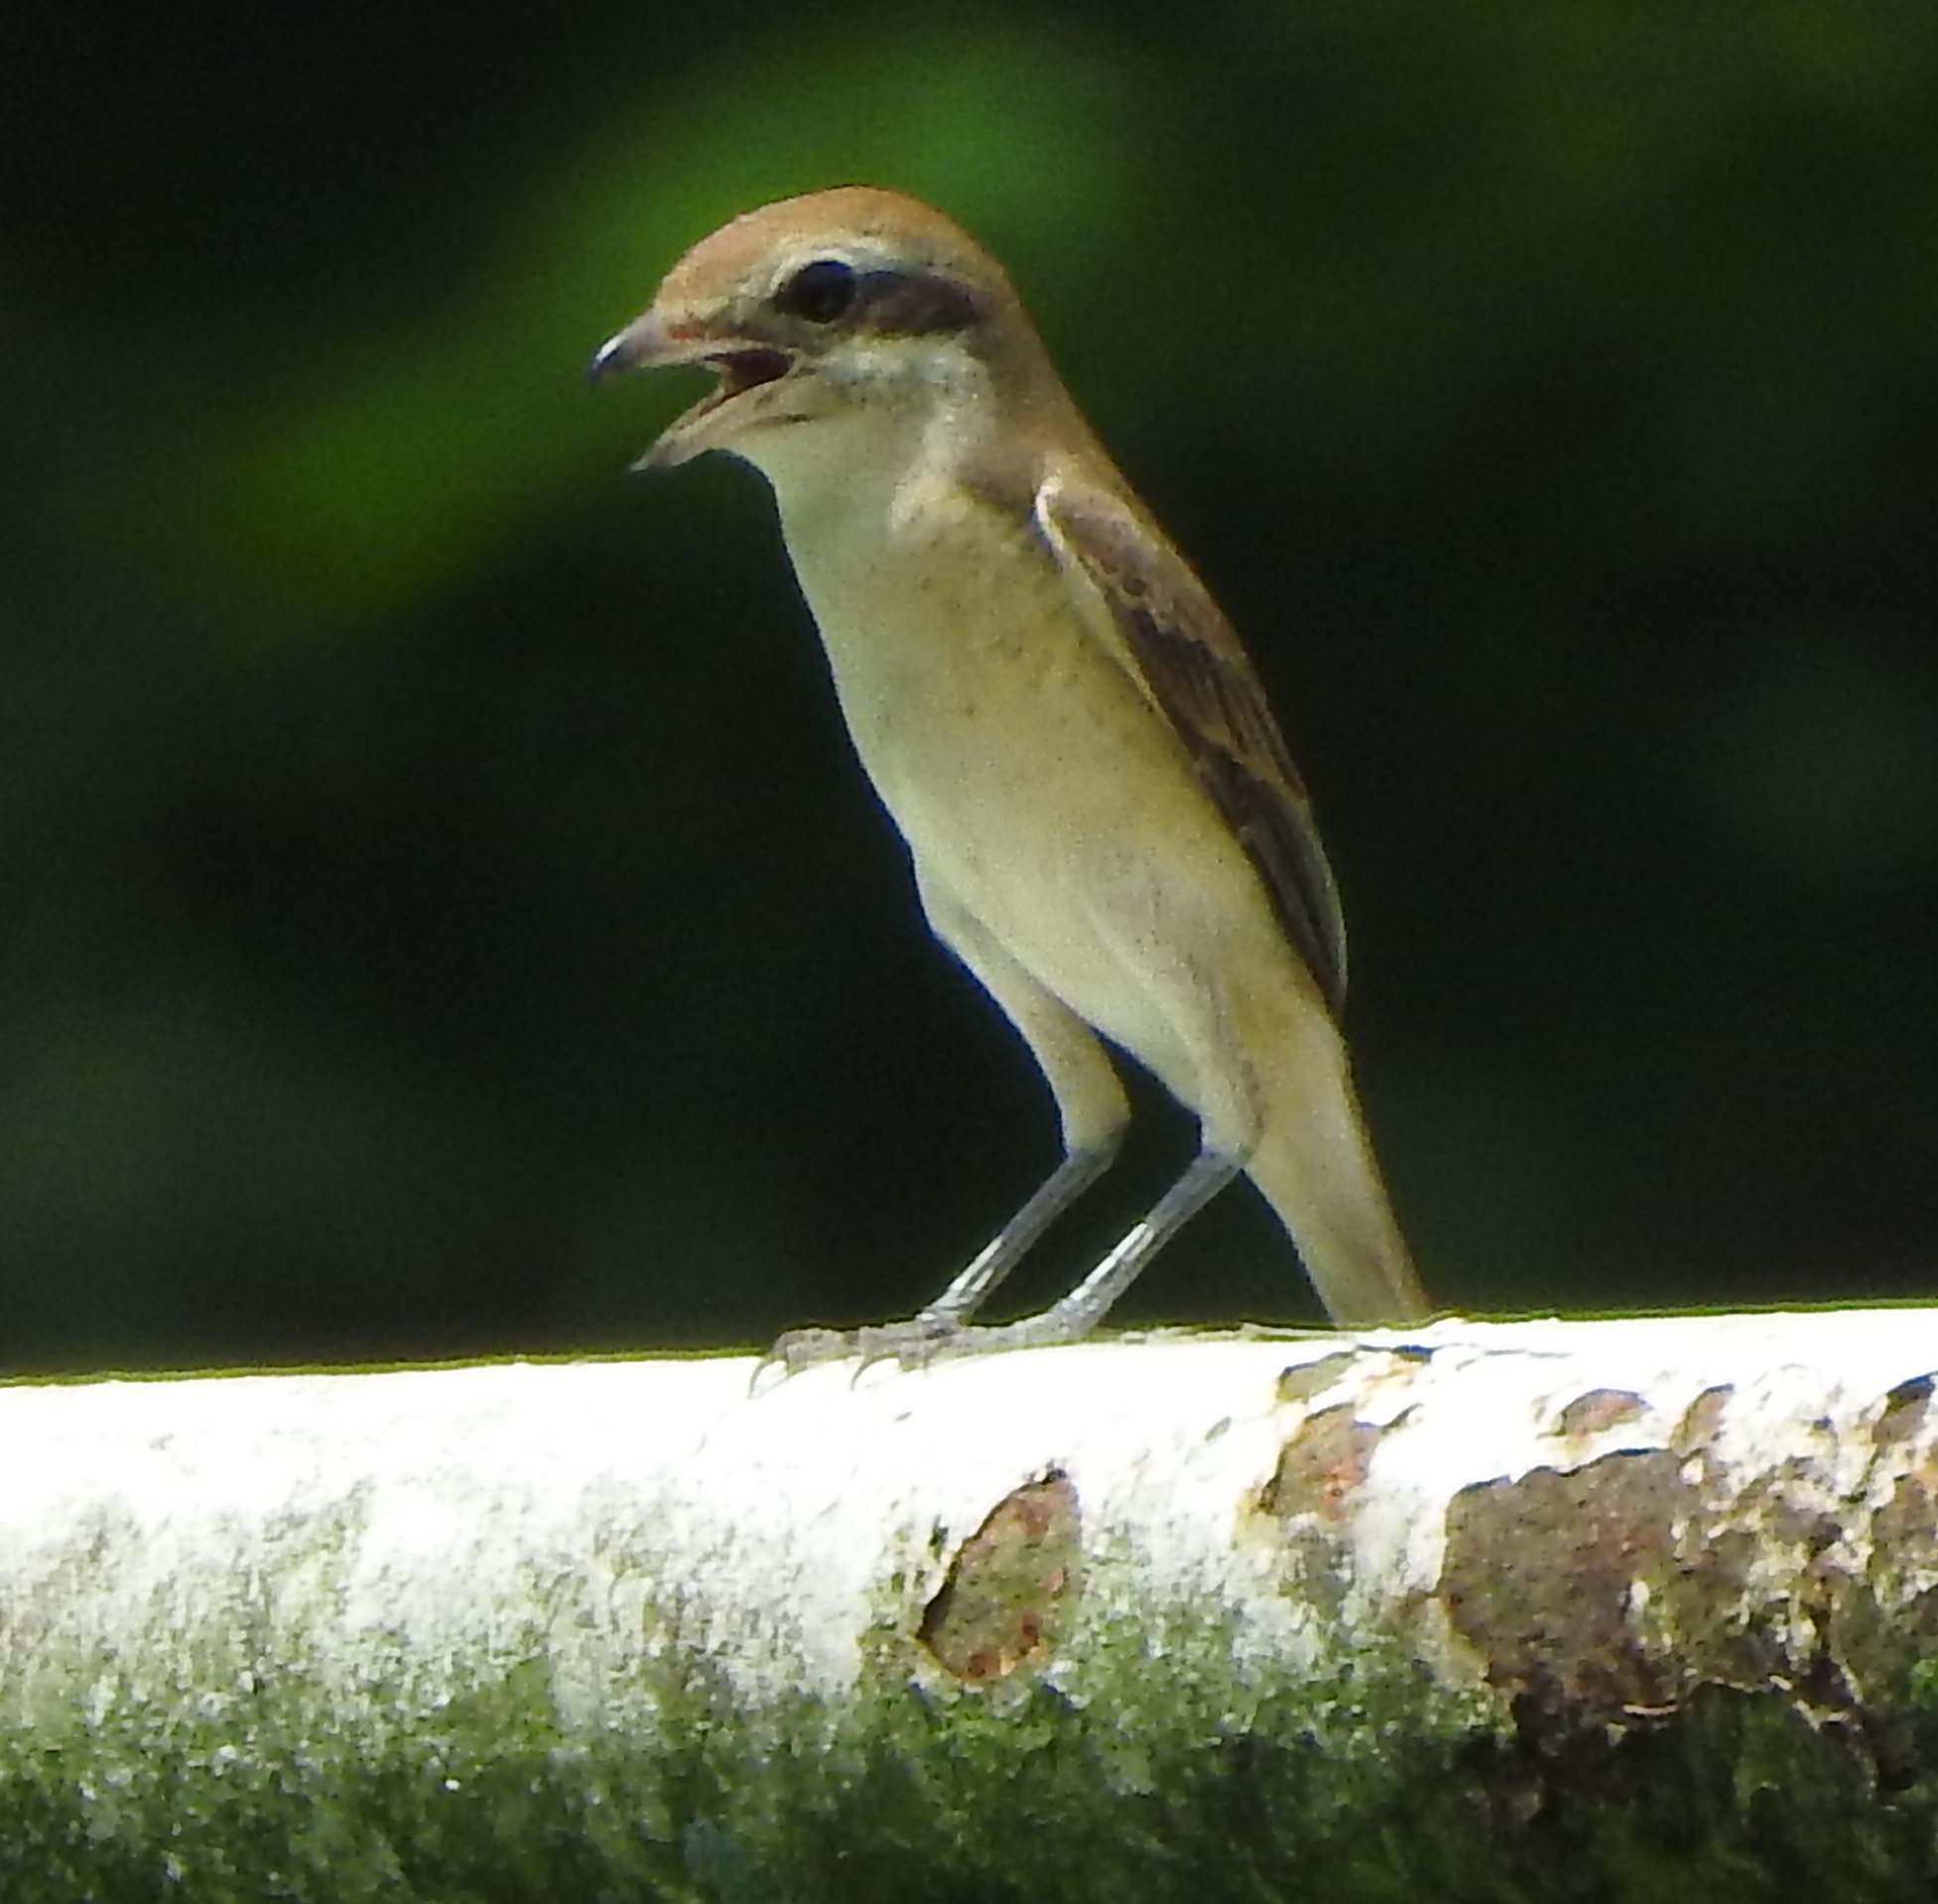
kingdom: Animalia
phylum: Chordata
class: Aves
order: Passeriformes
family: Laniidae
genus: Lanius
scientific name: Lanius cristatus
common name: Brown shrike
